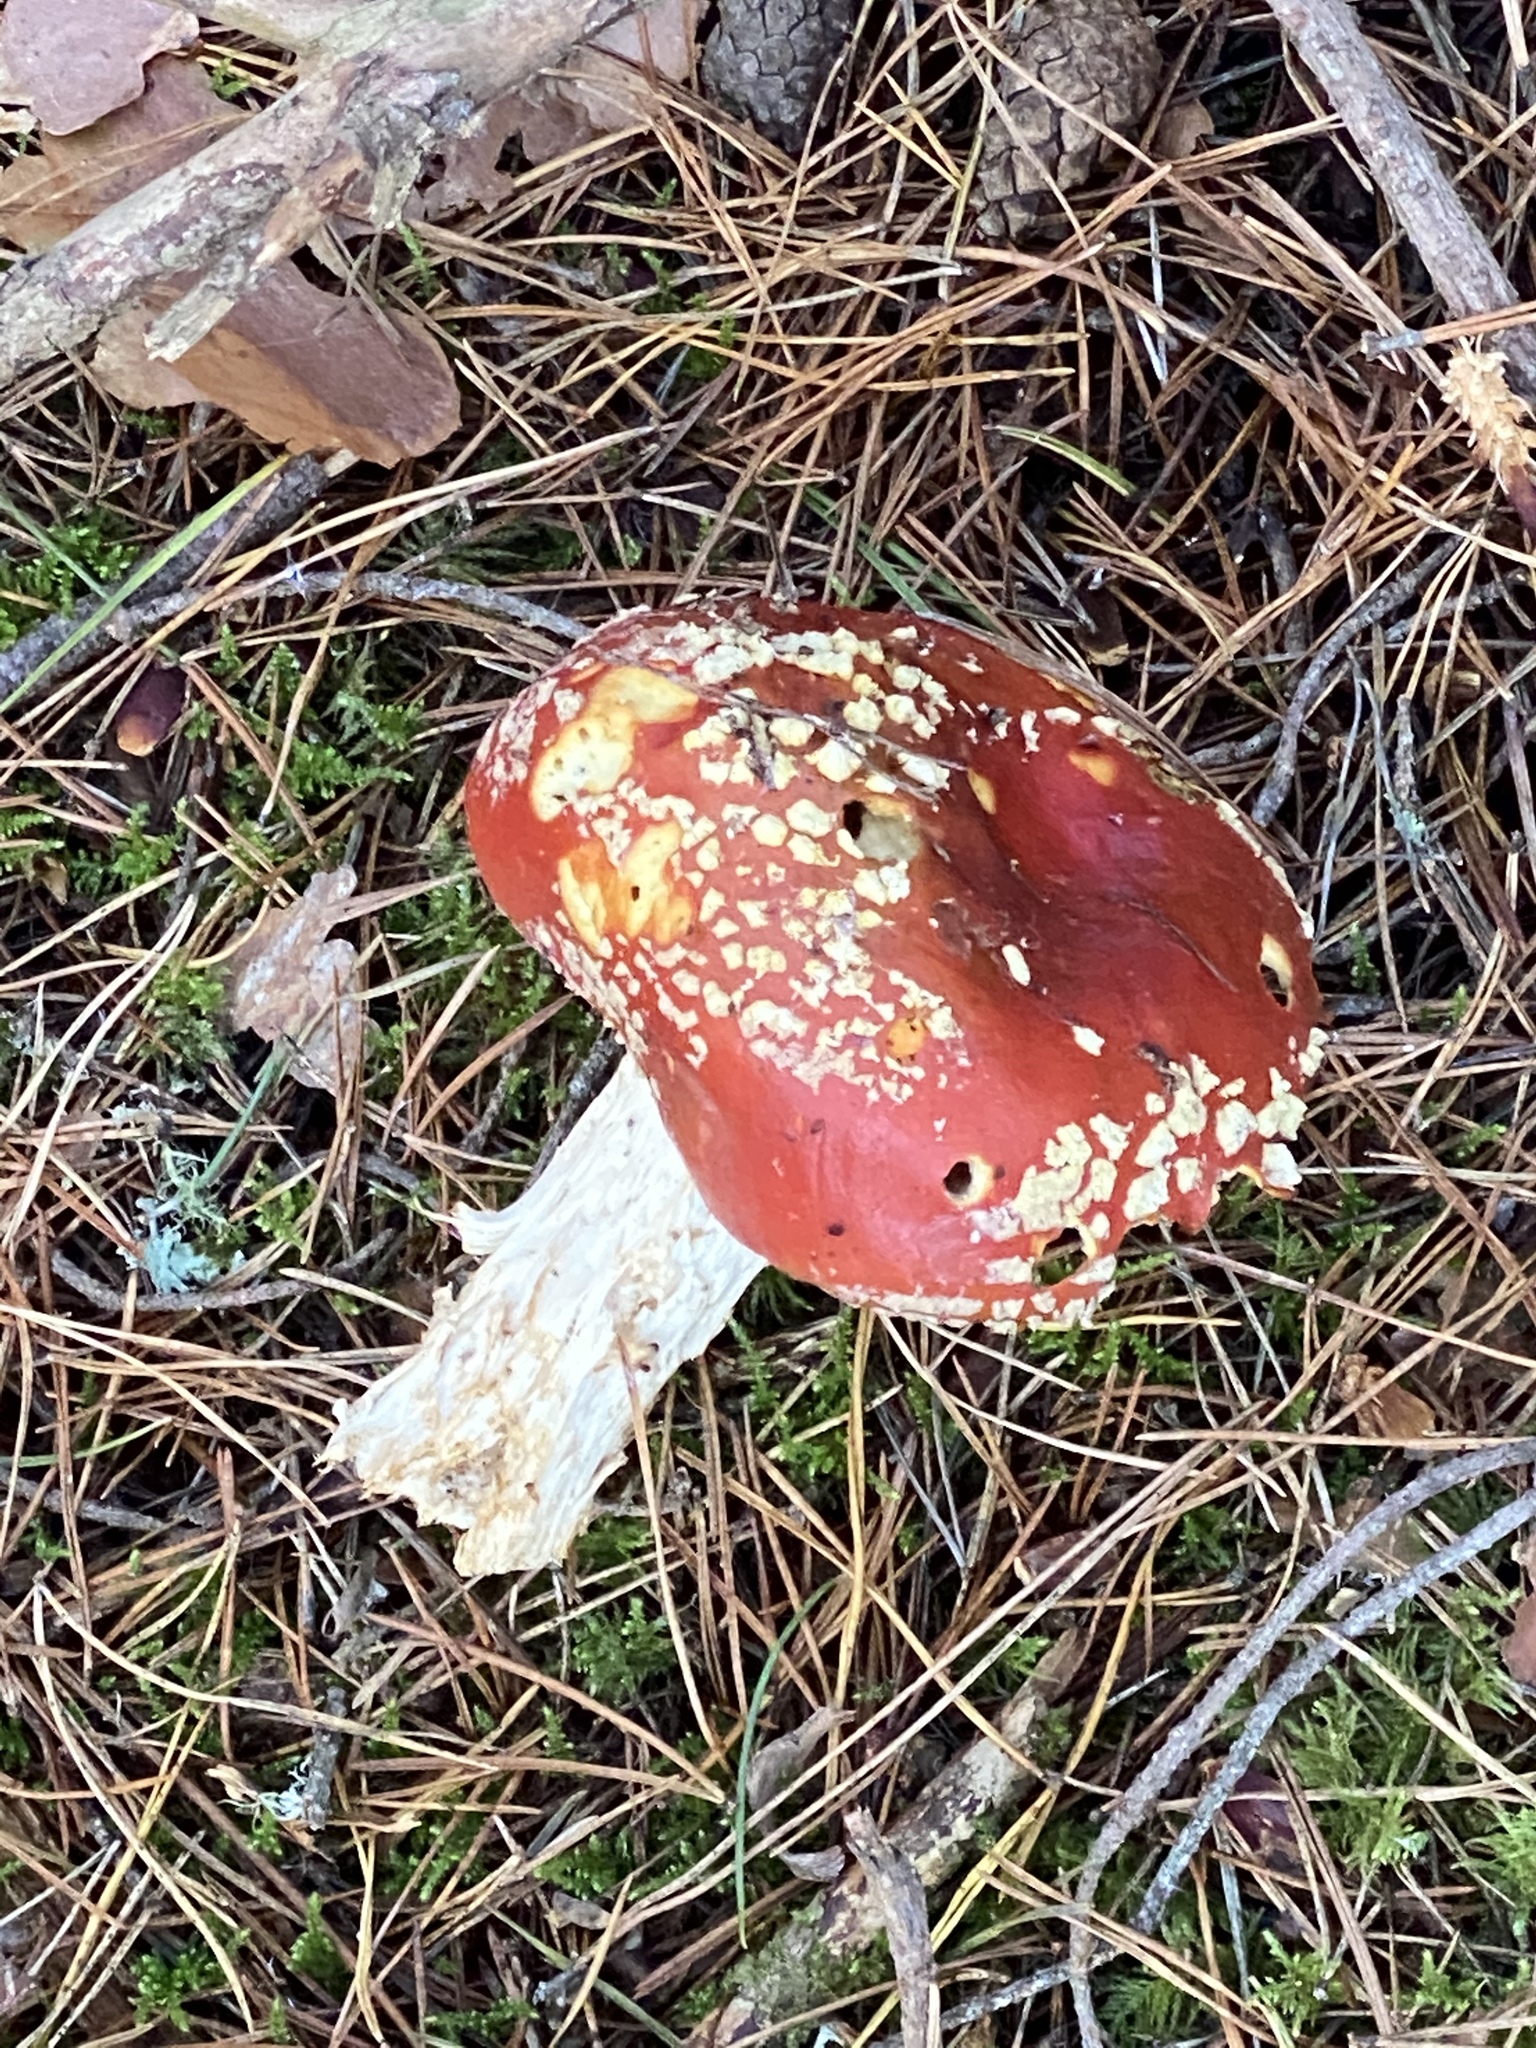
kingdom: Fungi
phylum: Basidiomycota
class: Agaricomycetes
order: Agaricales
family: Amanitaceae
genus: Amanita
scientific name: Amanita muscaria
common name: Fly agaric
